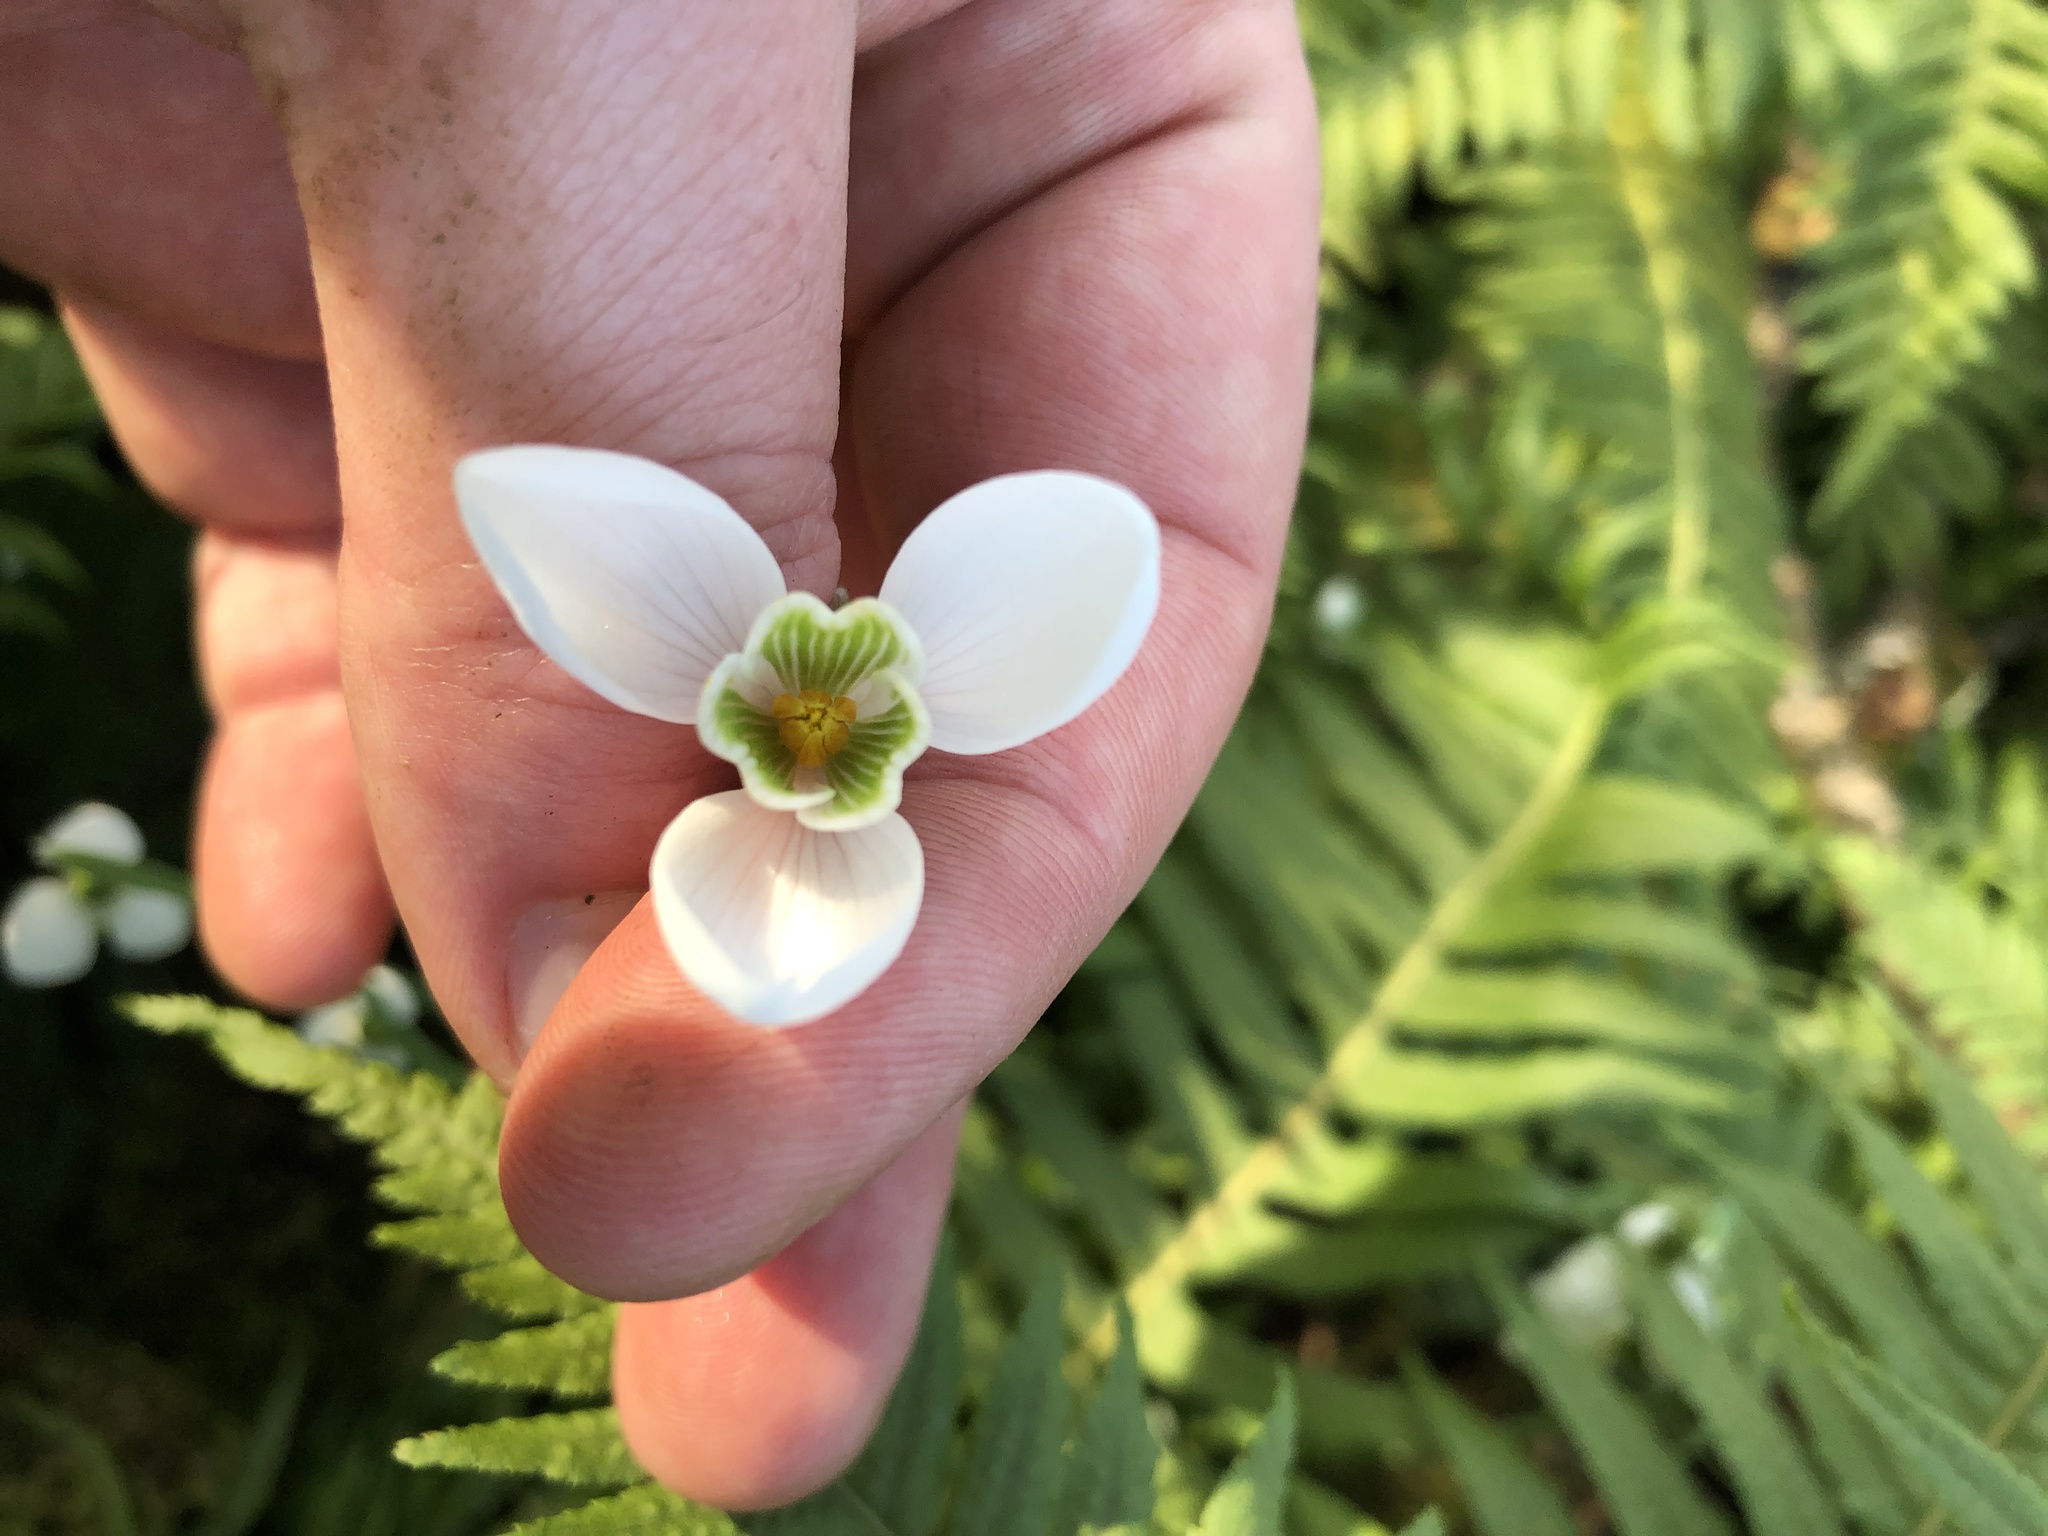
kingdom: Plantae
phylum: Tracheophyta
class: Liliopsida
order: Asparagales
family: Amaryllidaceae
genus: Galanthus
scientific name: Galanthus nivalis
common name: Snowdrop
